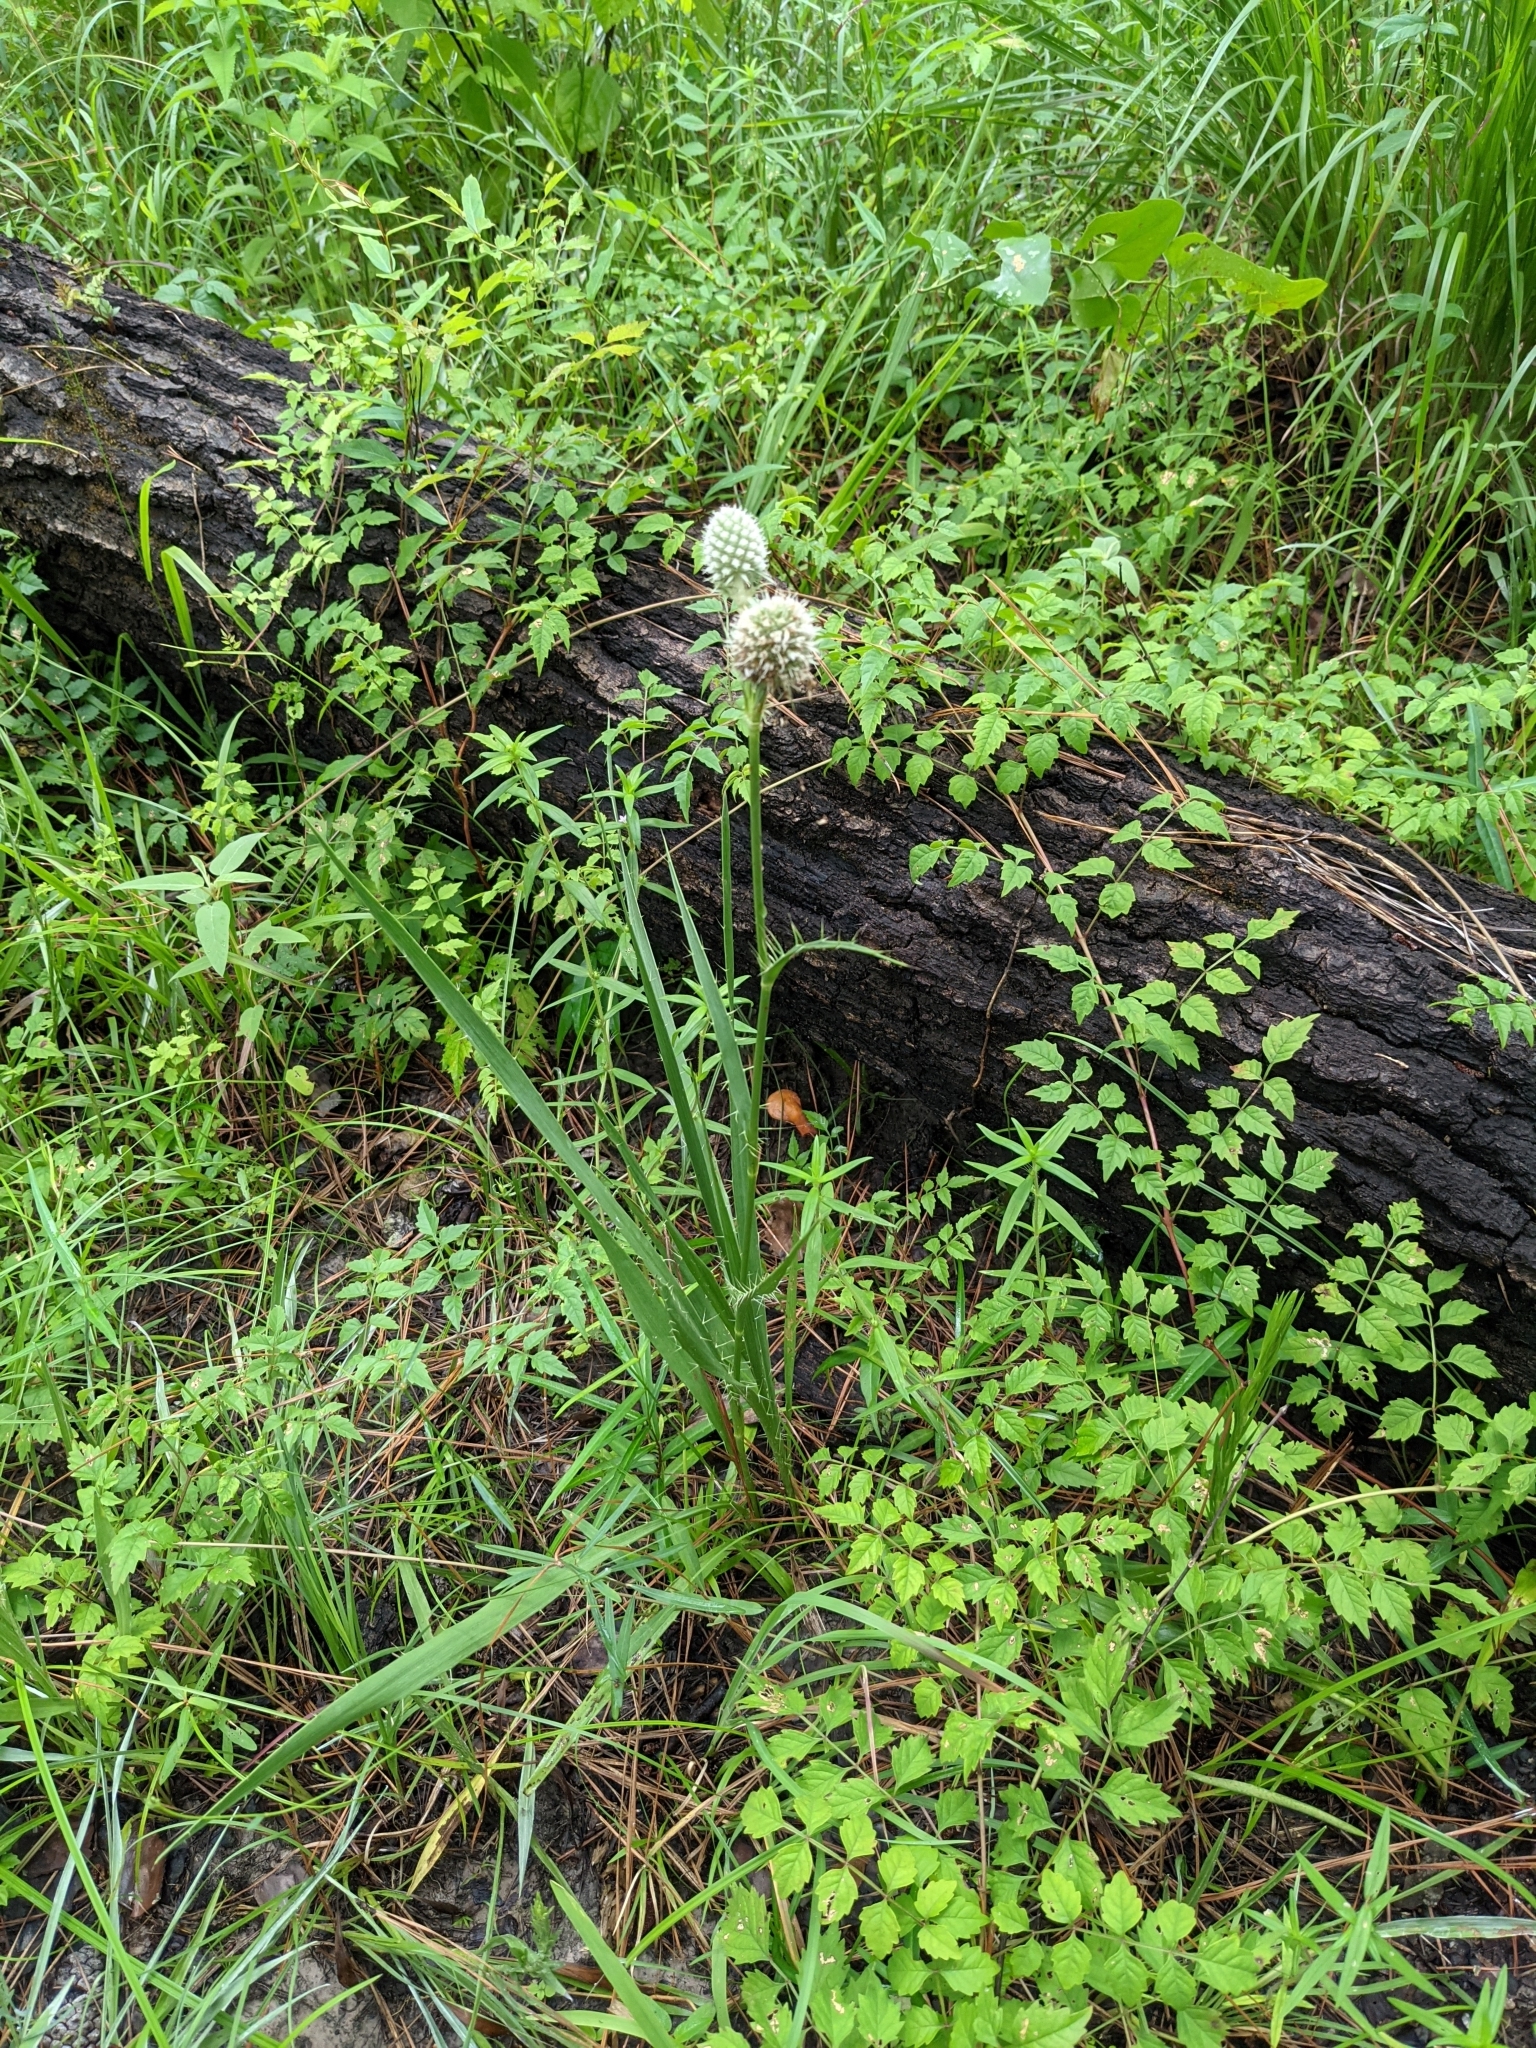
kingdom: Plantae
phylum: Tracheophyta
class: Magnoliopsida
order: Apiales
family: Apiaceae
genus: Eryngium
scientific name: Eryngium yuccifolium
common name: Button eryngo
